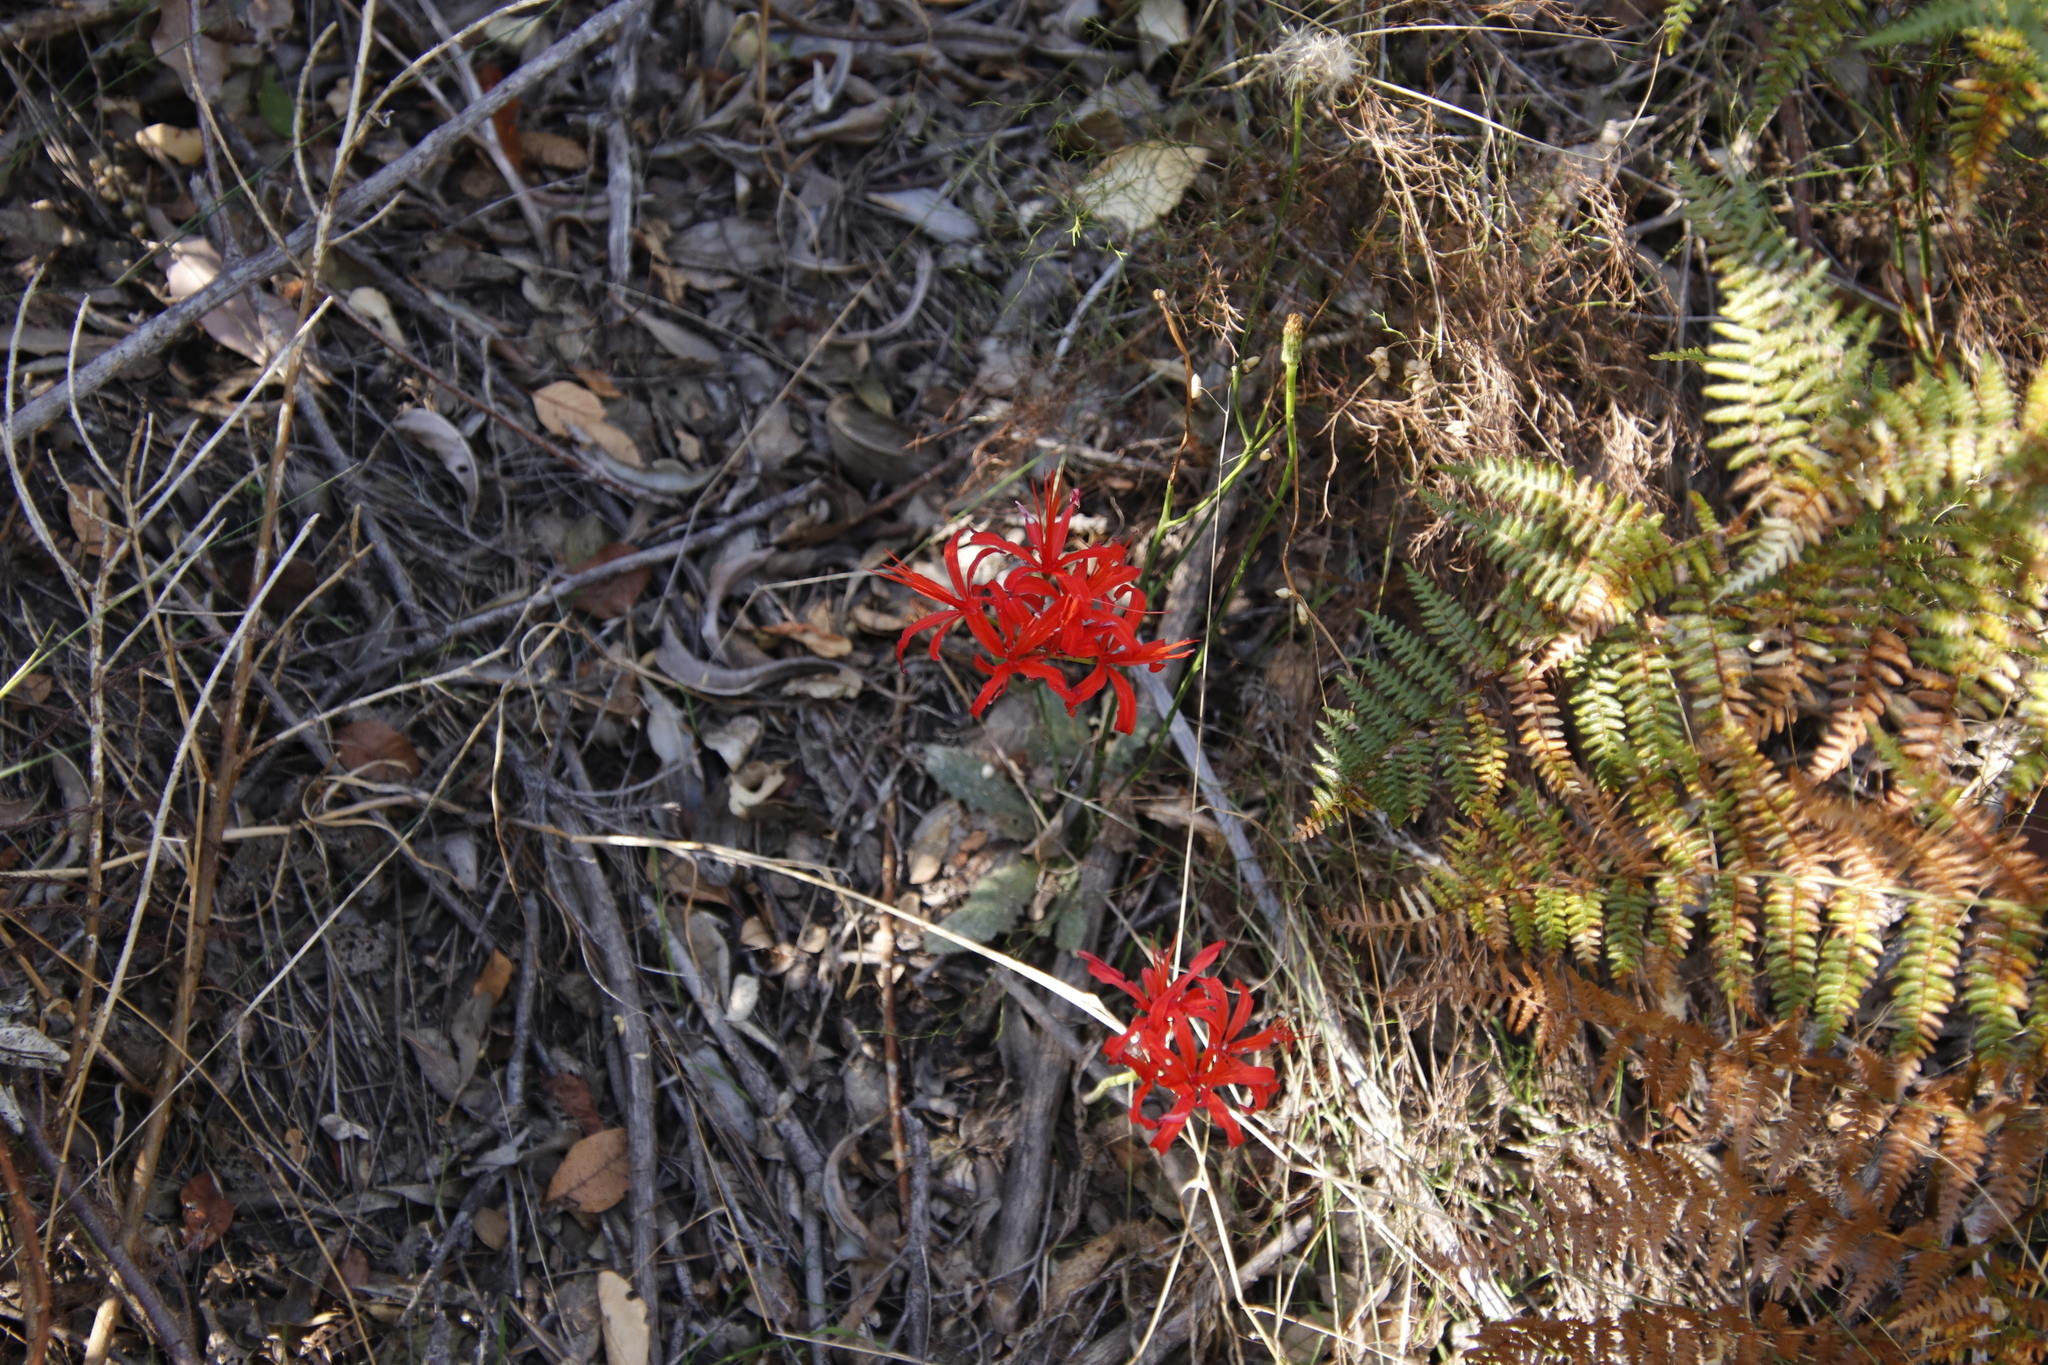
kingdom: Plantae
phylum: Tracheophyta
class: Liliopsida
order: Asparagales
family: Amaryllidaceae
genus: Nerine
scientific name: Nerine sarniensis
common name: Guernsey-lily
